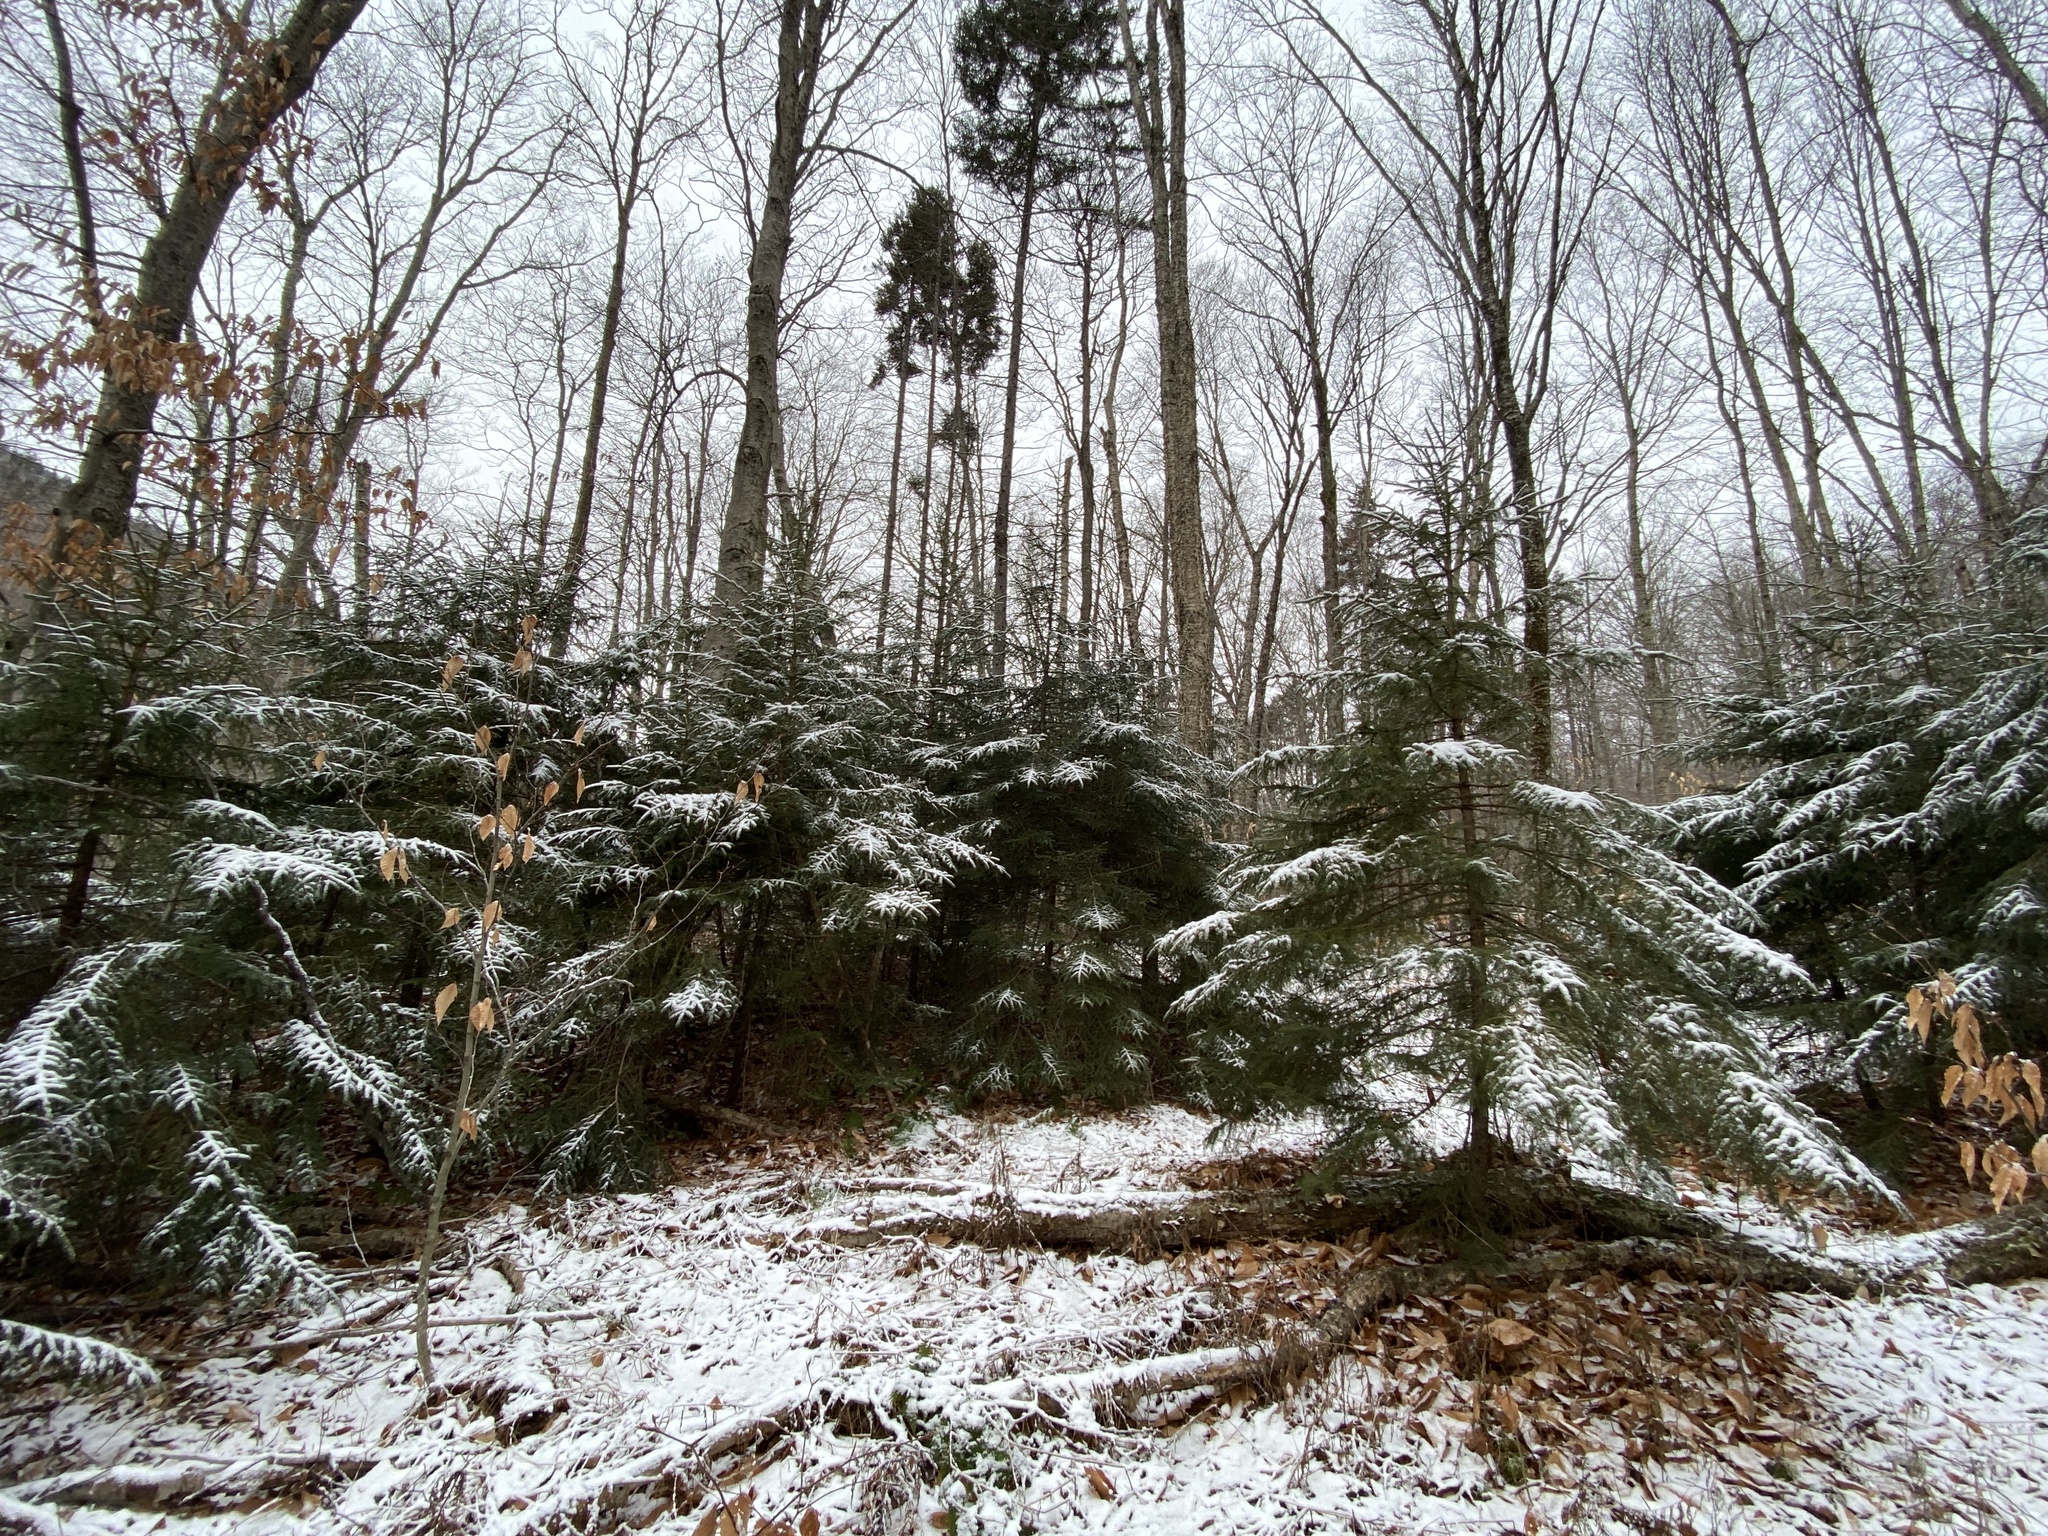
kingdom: Plantae
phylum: Tracheophyta
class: Pinopsida
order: Pinales
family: Pinaceae
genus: Picea
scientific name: Picea rubens
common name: Red spruce
